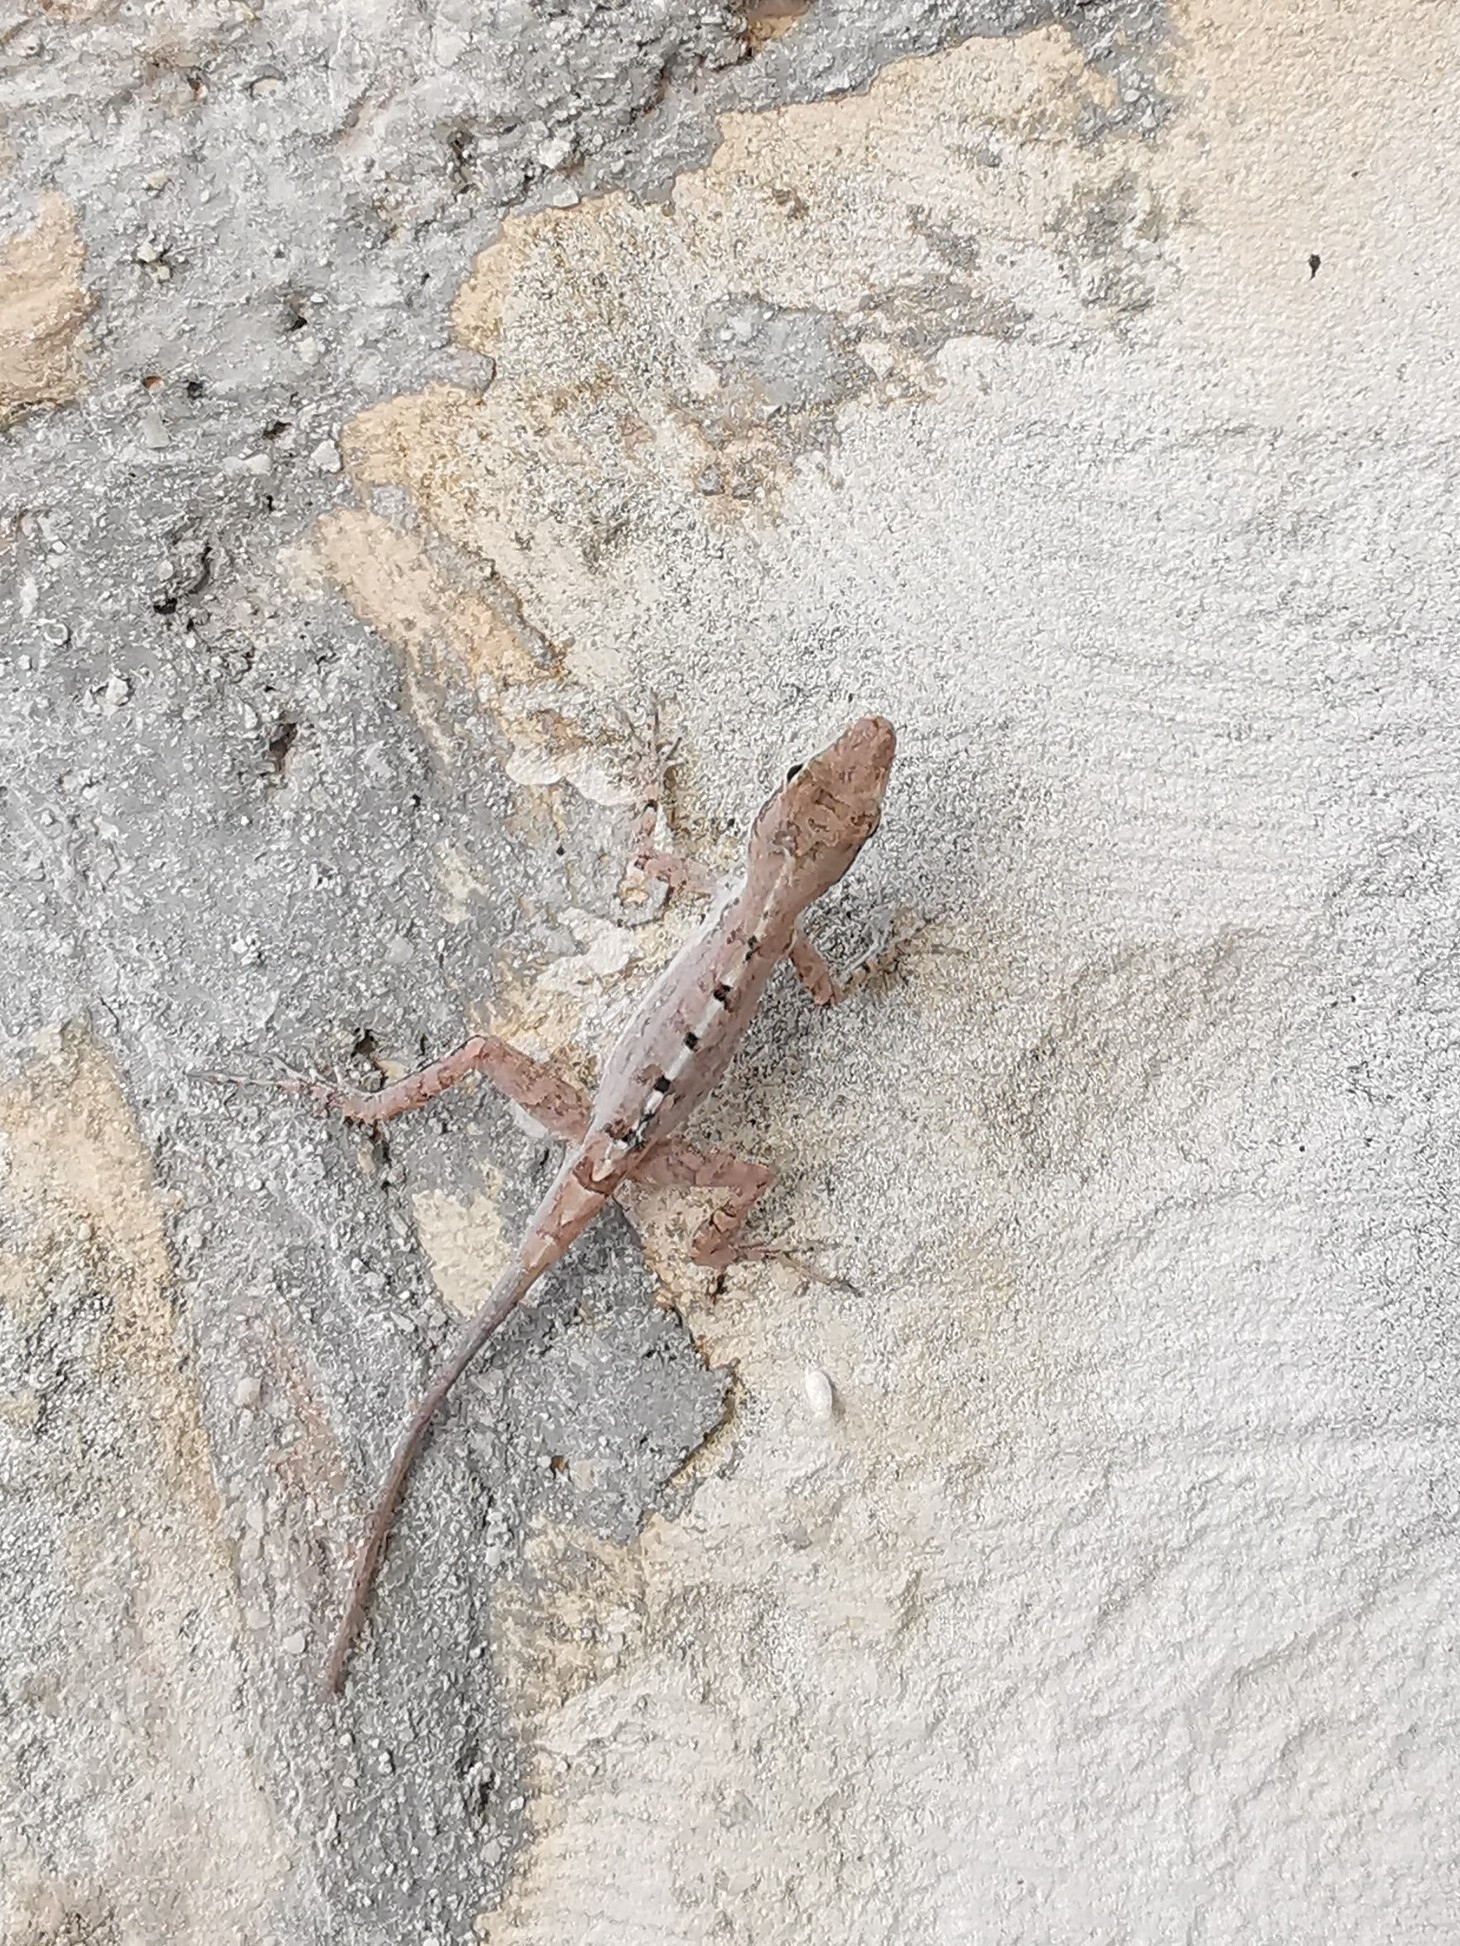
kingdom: Animalia
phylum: Chordata
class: Squamata
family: Dactyloidae
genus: Anolis
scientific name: Anolis scriptus
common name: Silver key anole
